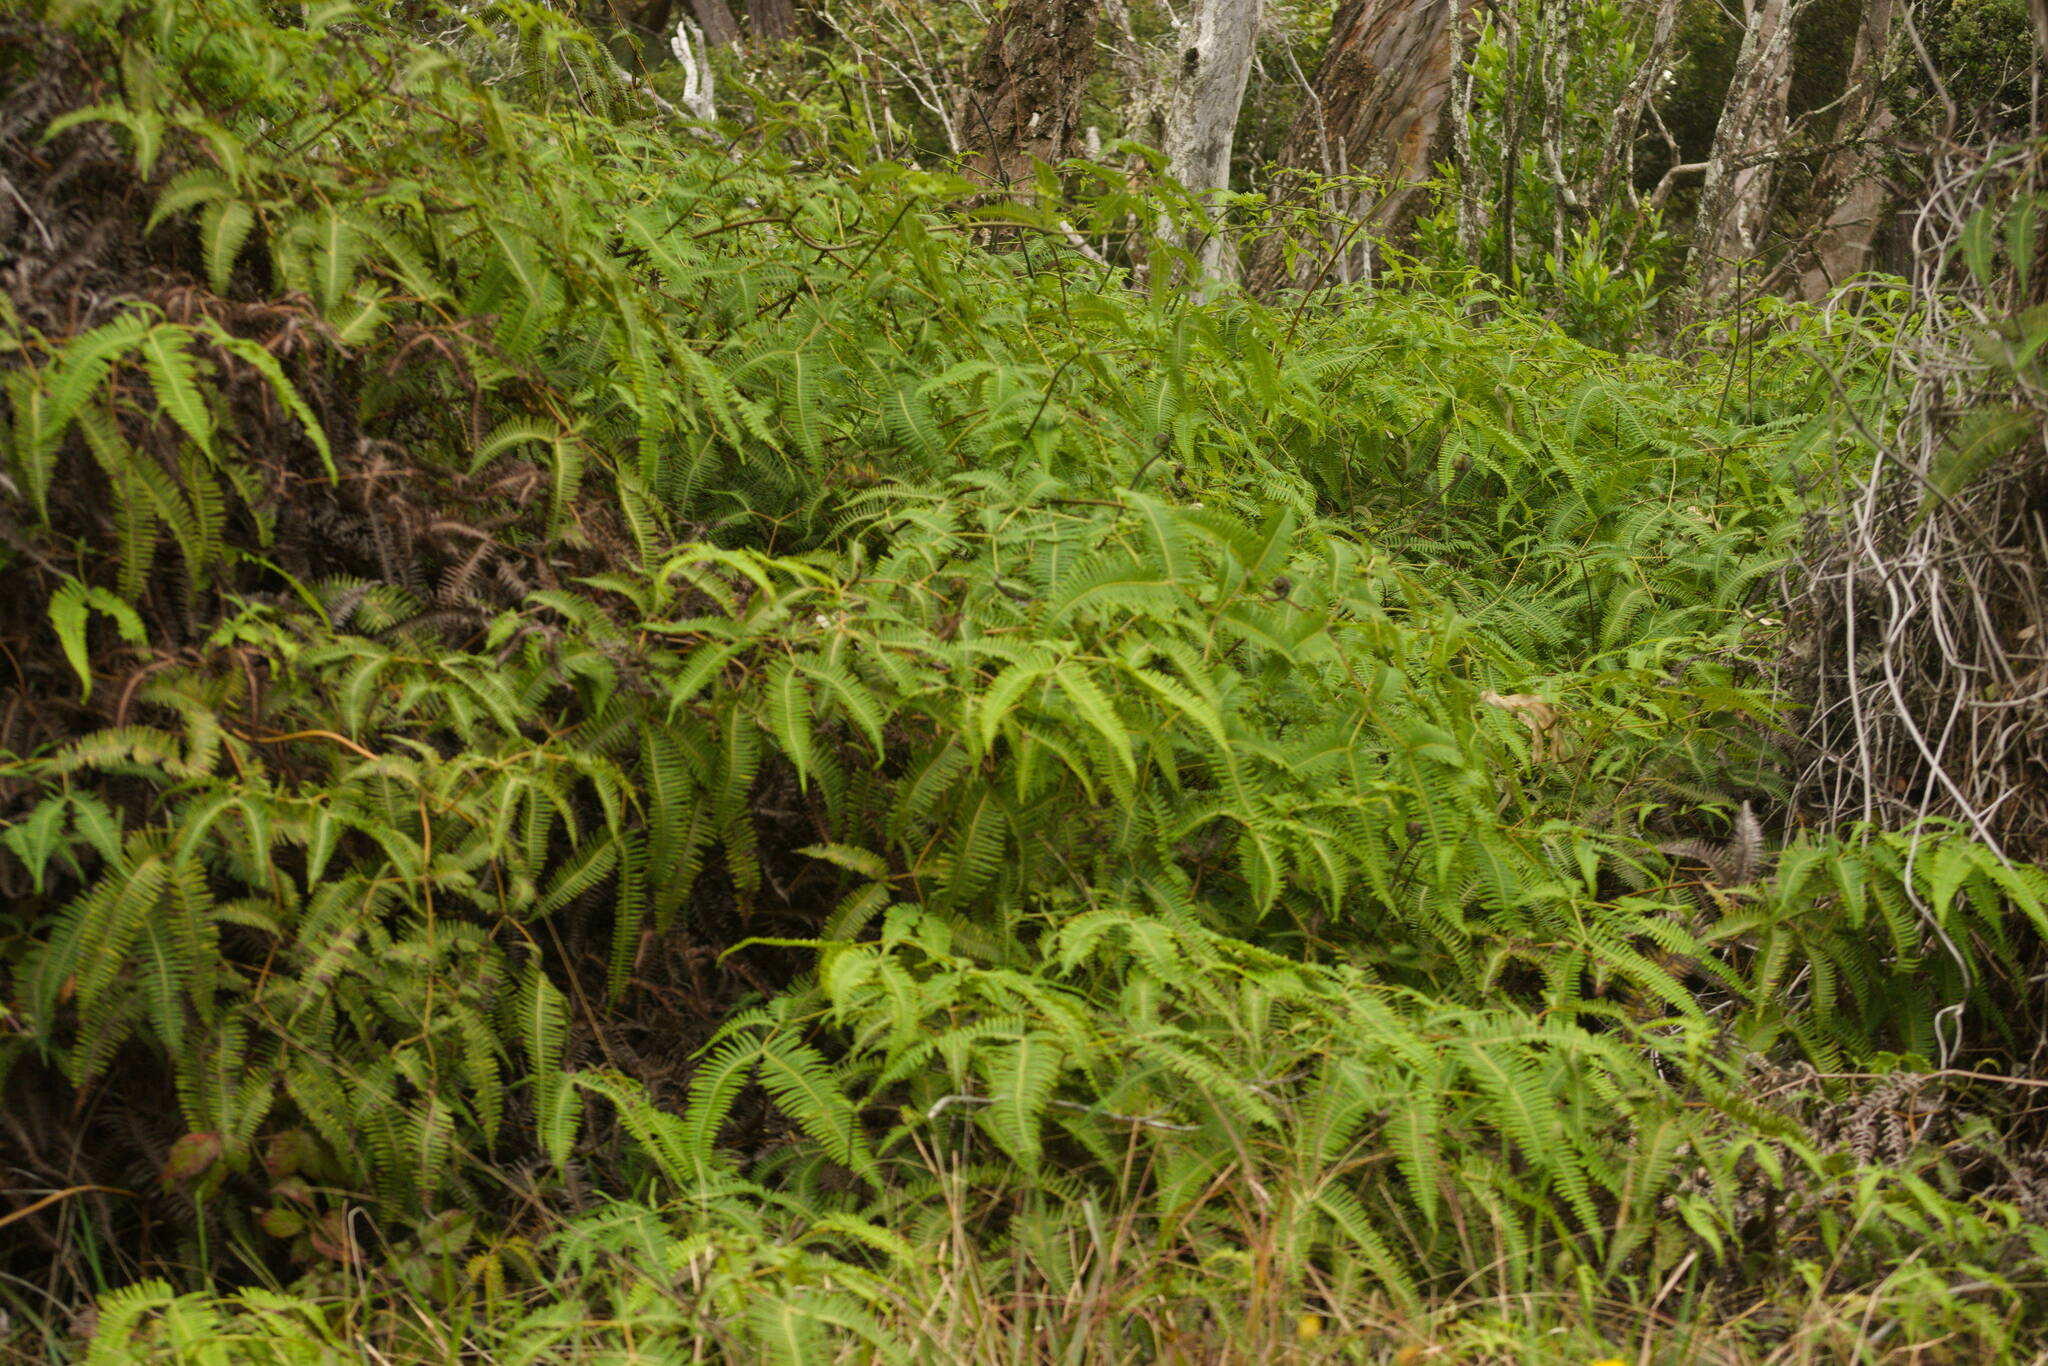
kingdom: Plantae
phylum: Tracheophyta
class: Polypodiopsida
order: Gleicheniales
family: Gleicheniaceae
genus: Dicranopteris
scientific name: Dicranopteris linearis
